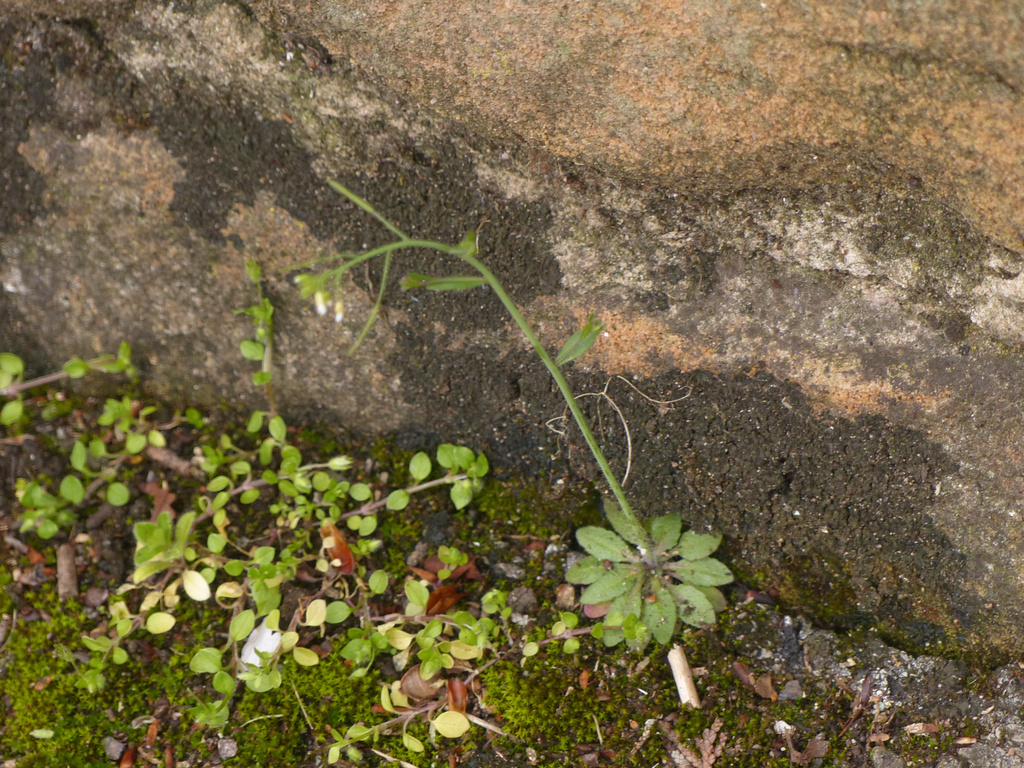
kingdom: Plantae
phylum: Tracheophyta
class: Magnoliopsida
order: Brassicales
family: Brassicaceae
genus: Arabidopsis
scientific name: Arabidopsis thaliana
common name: Thale cress
